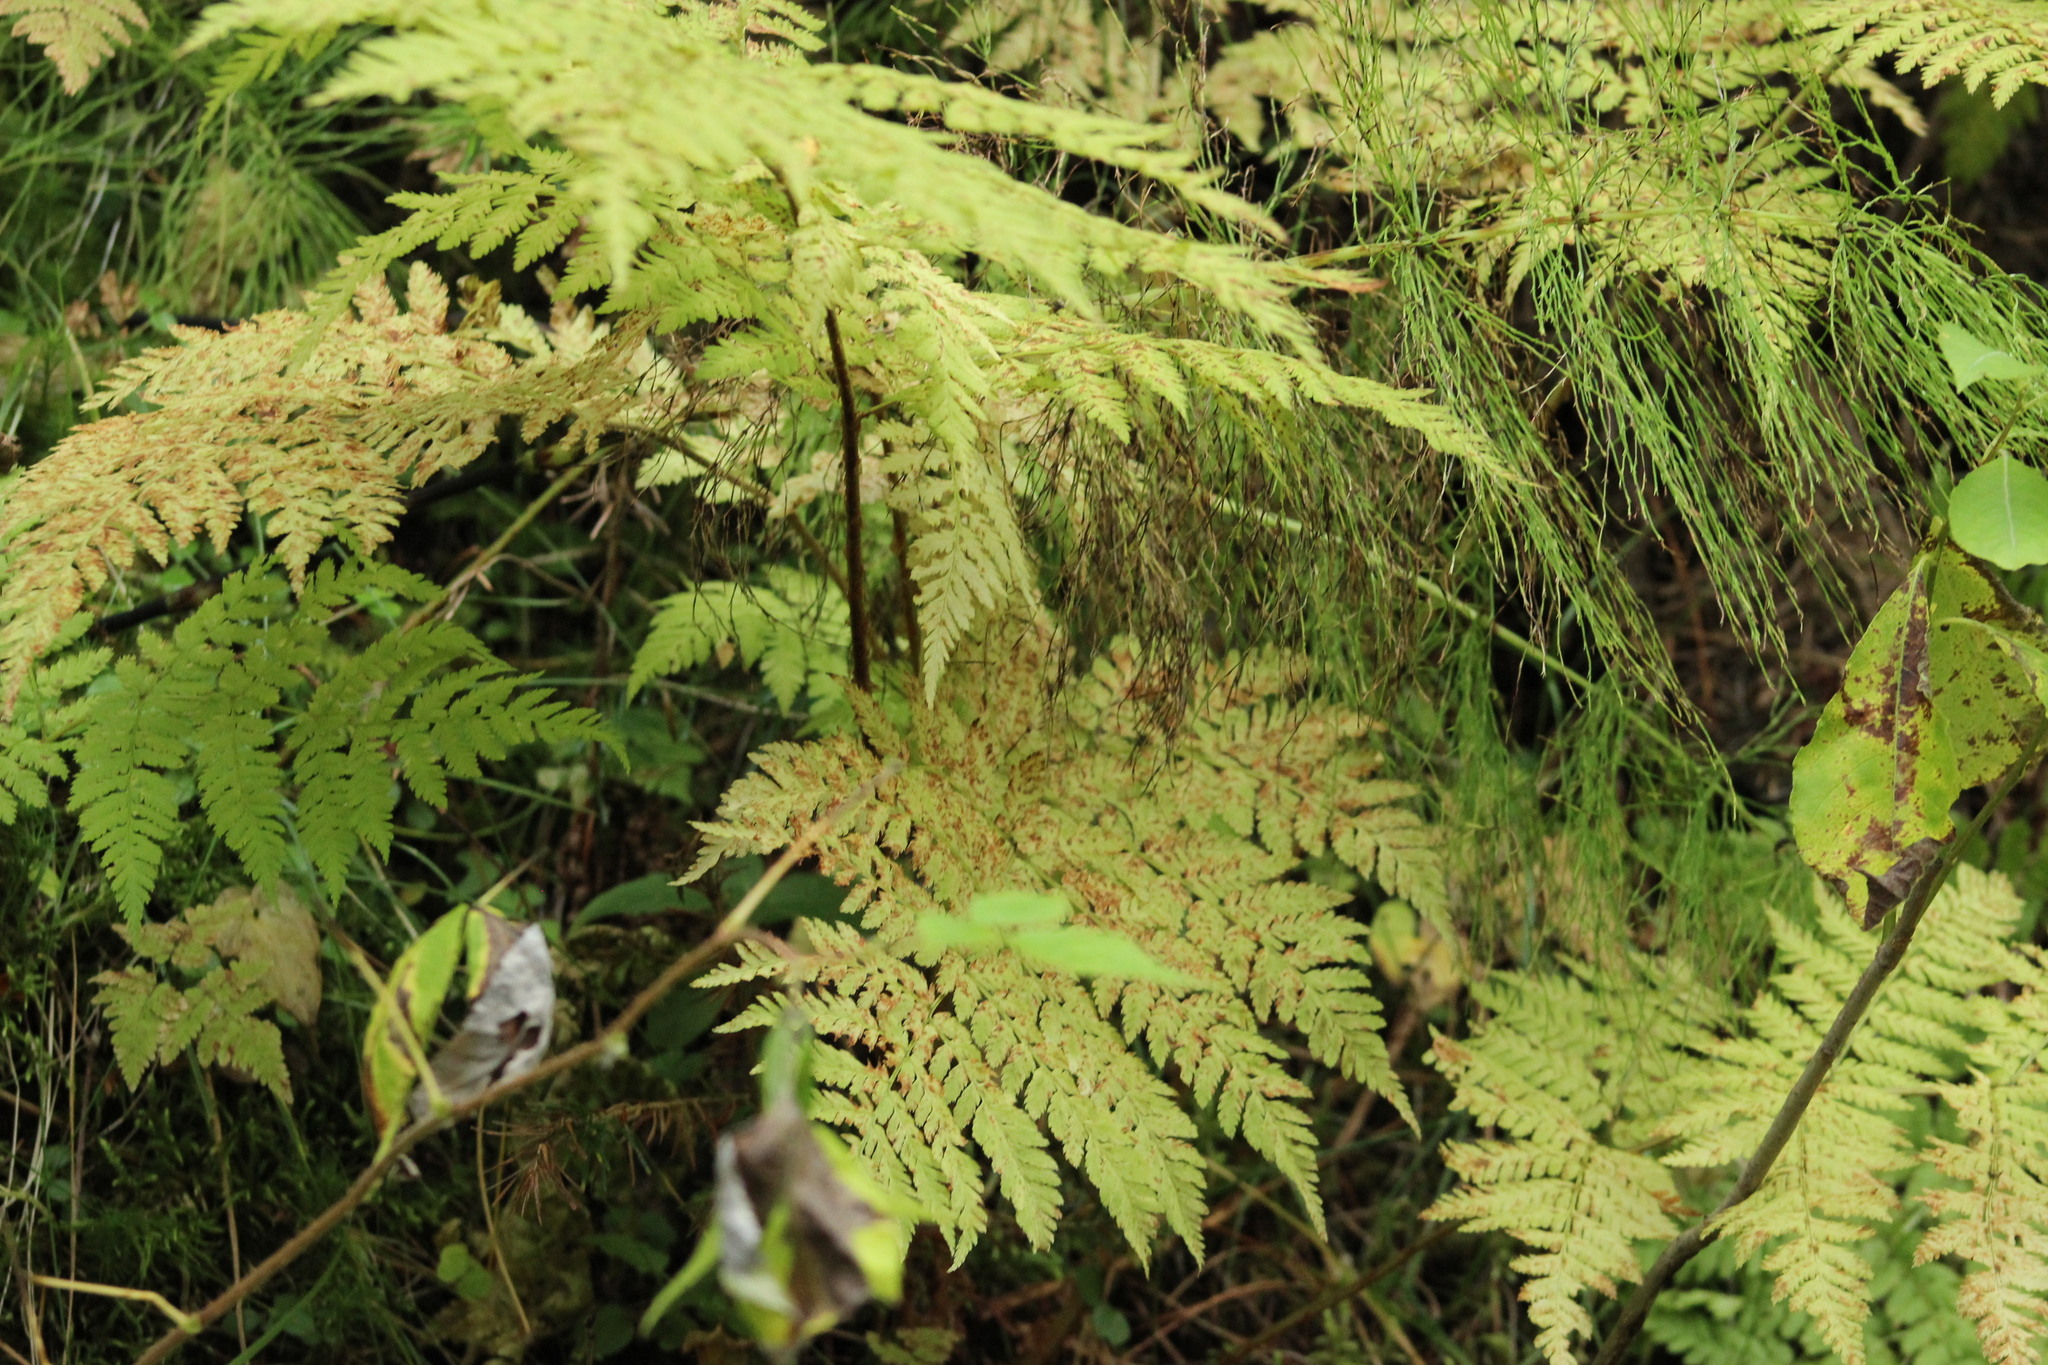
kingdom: Plantae
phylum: Tracheophyta
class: Polypodiopsida
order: Polypodiales
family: Dryopteridaceae
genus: Dryopteris
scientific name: Dryopteris expansa
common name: Northern buckler fern
